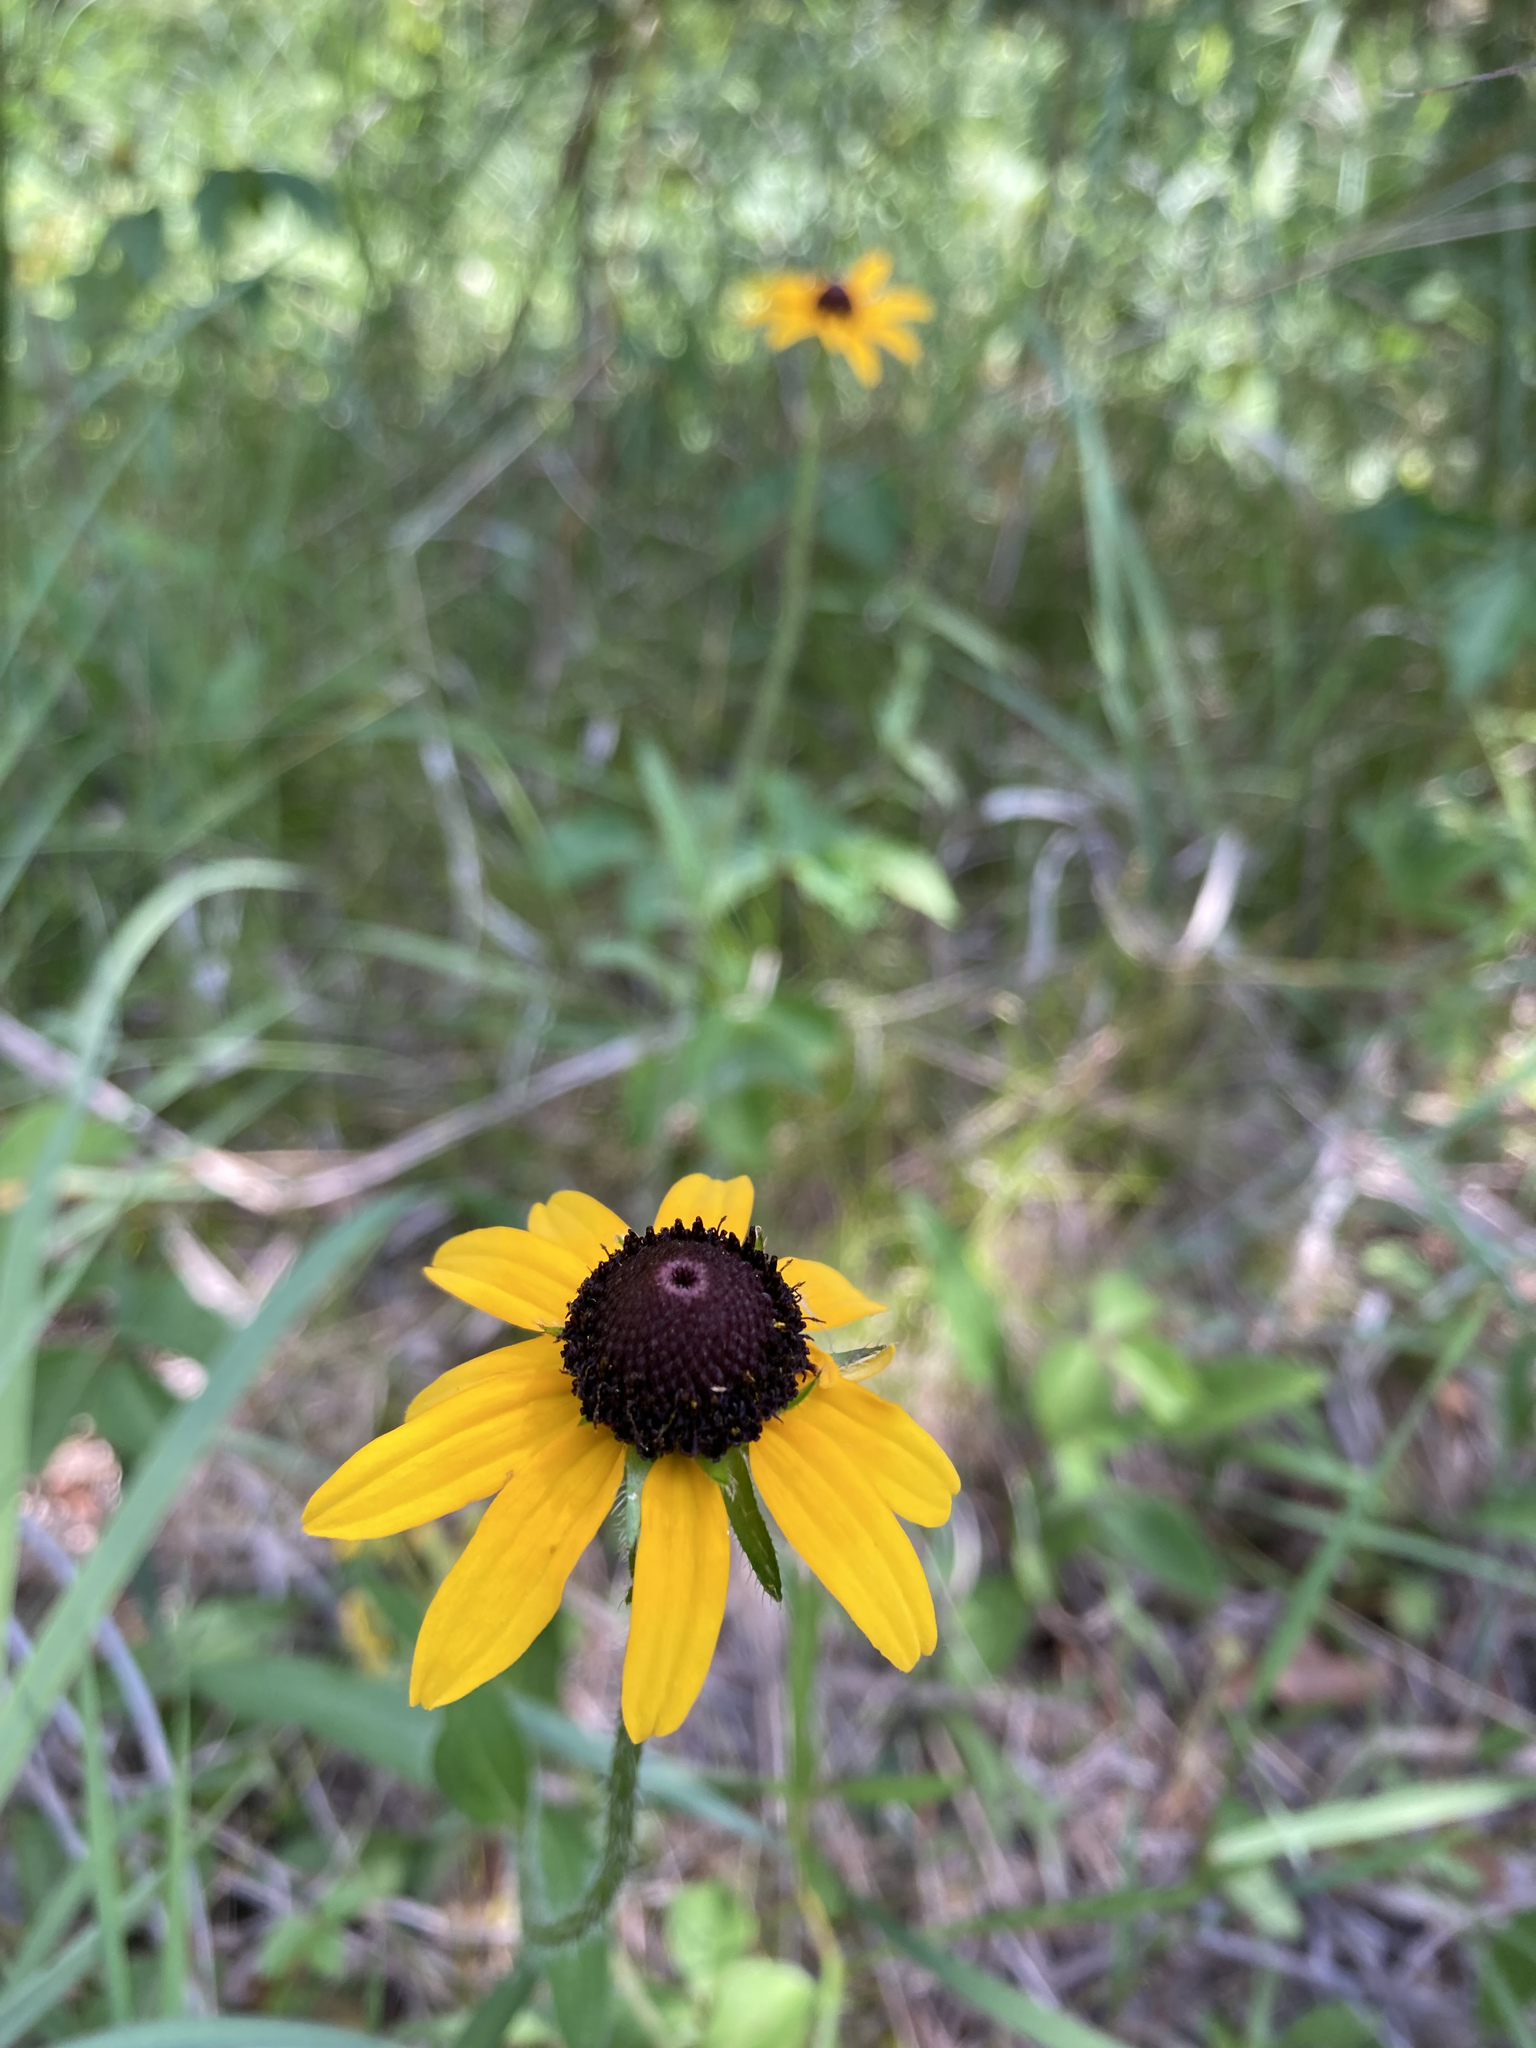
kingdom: Plantae
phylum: Tracheophyta
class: Magnoliopsida
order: Asterales
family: Asteraceae
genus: Rudbeckia
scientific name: Rudbeckia hirta
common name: Black-eyed-susan
